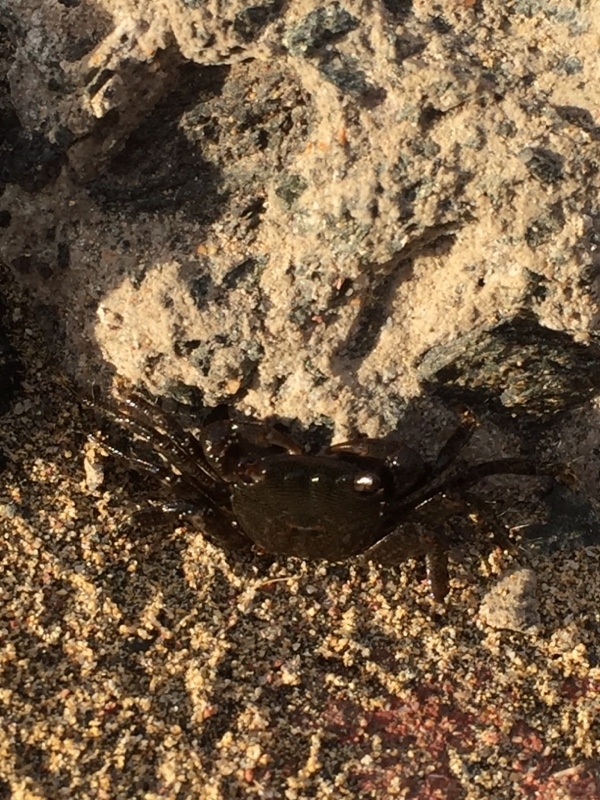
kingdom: Animalia
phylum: Arthropoda
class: Malacostraca
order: Decapoda
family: Grapsidae
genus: Pachygrapsus
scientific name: Pachygrapsus marmoratus
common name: Marbled rock crab
